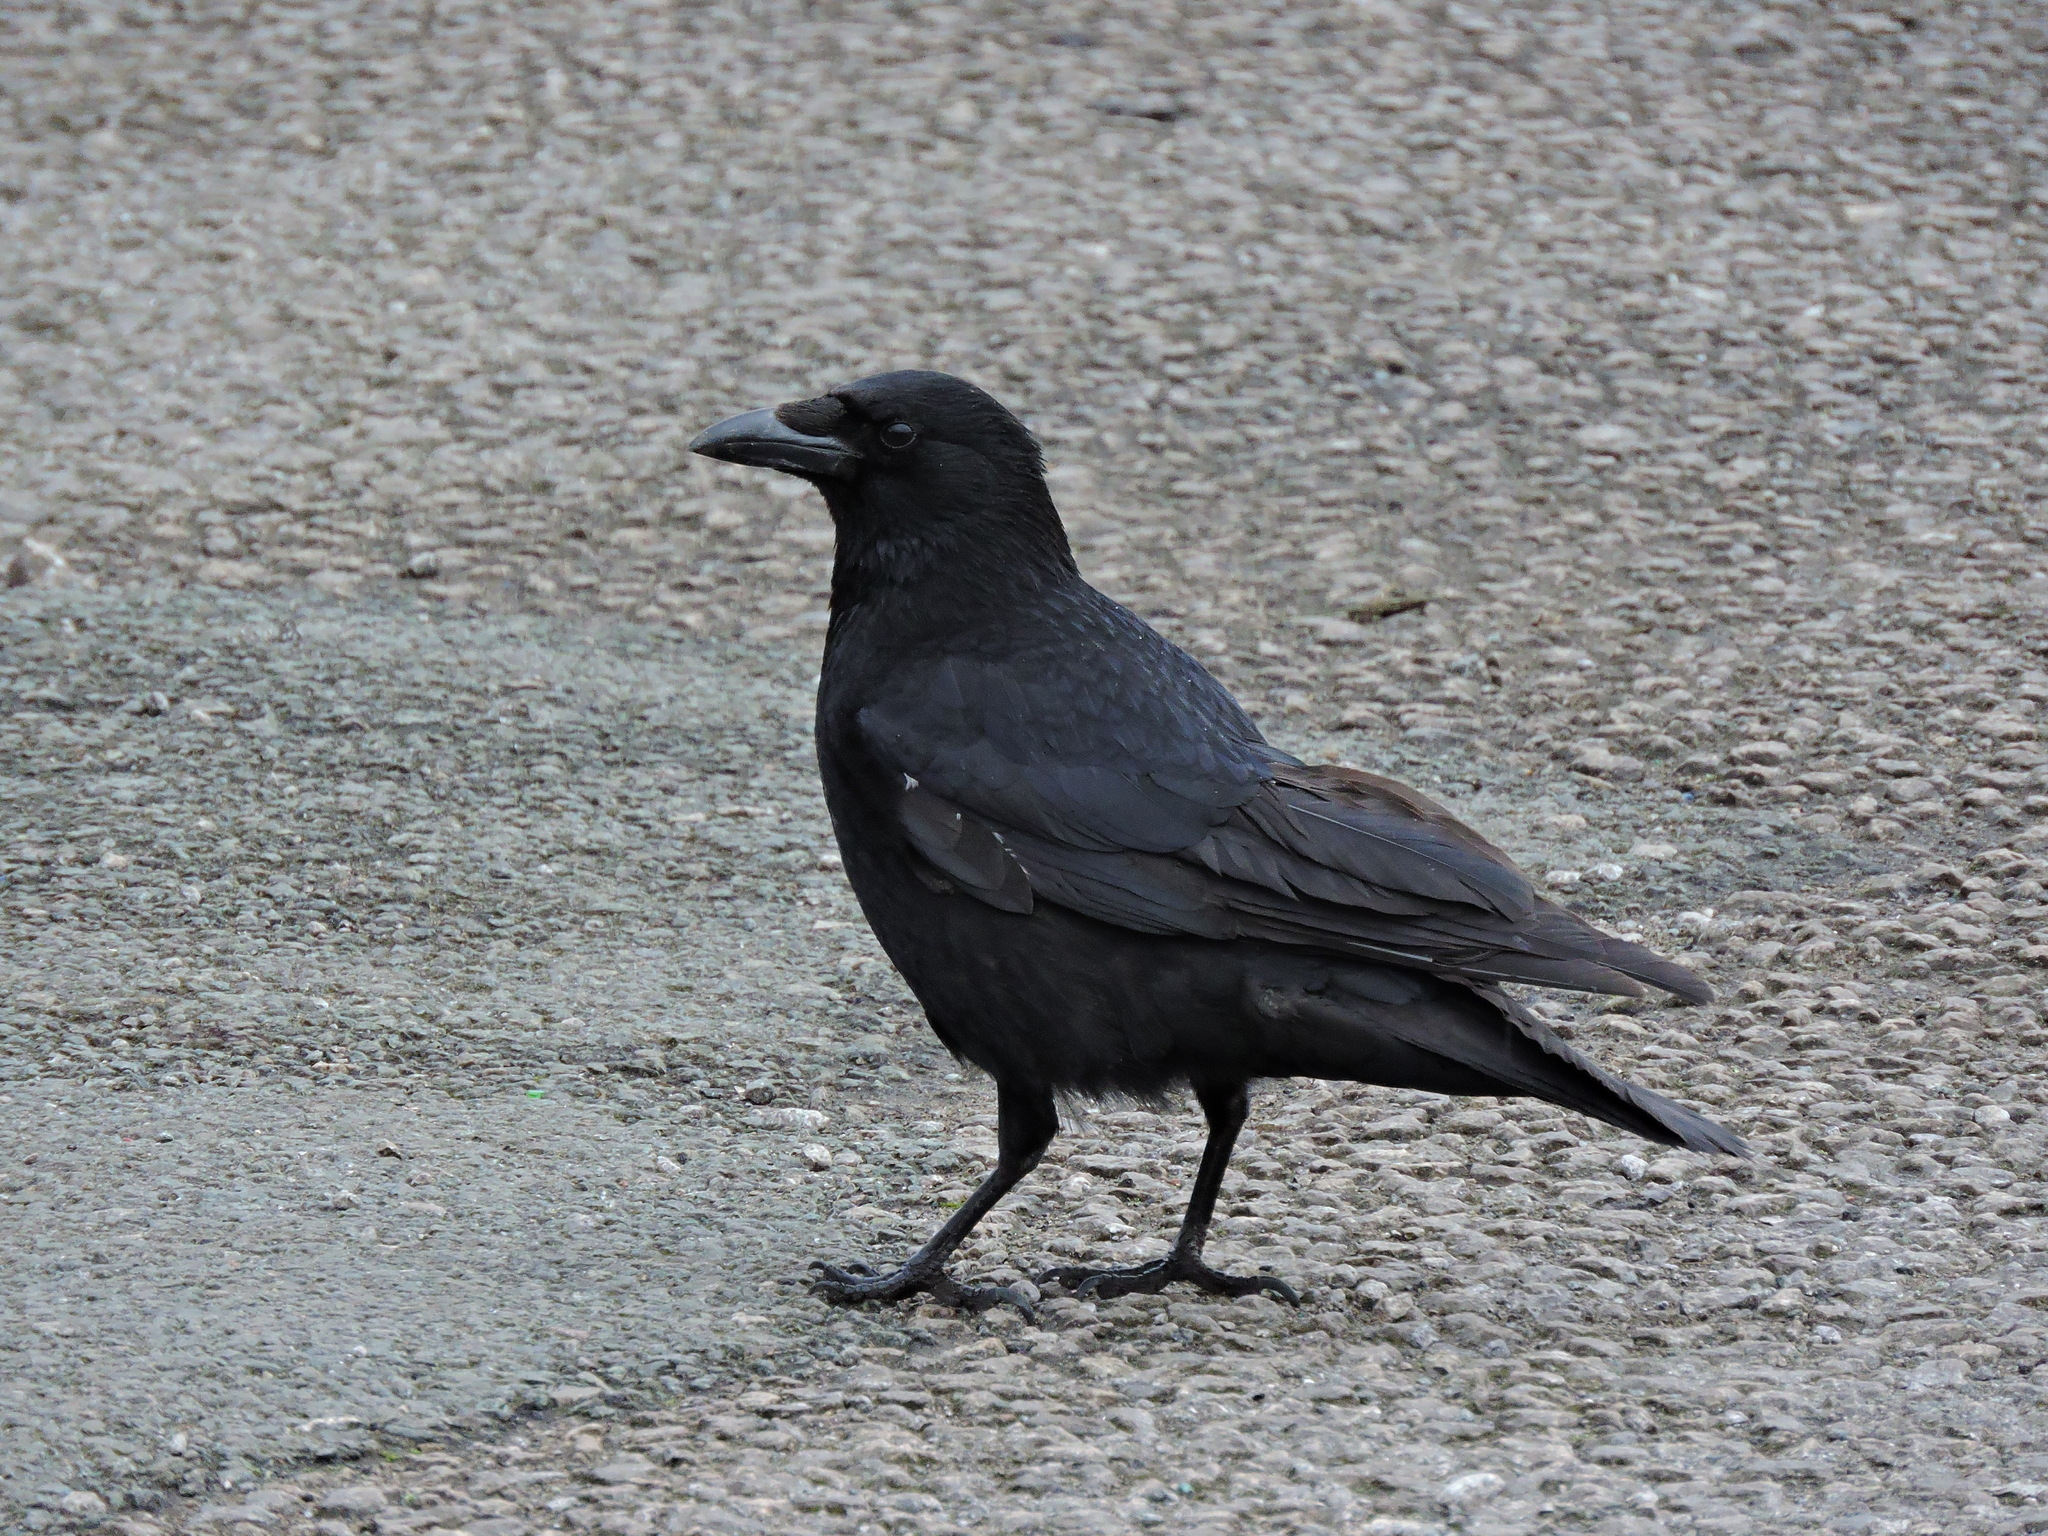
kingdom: Animalia
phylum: Chordata
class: Aves
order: Passeriformes
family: Corvidae
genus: Corvus
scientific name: Corvus corone
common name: Carrion crow
